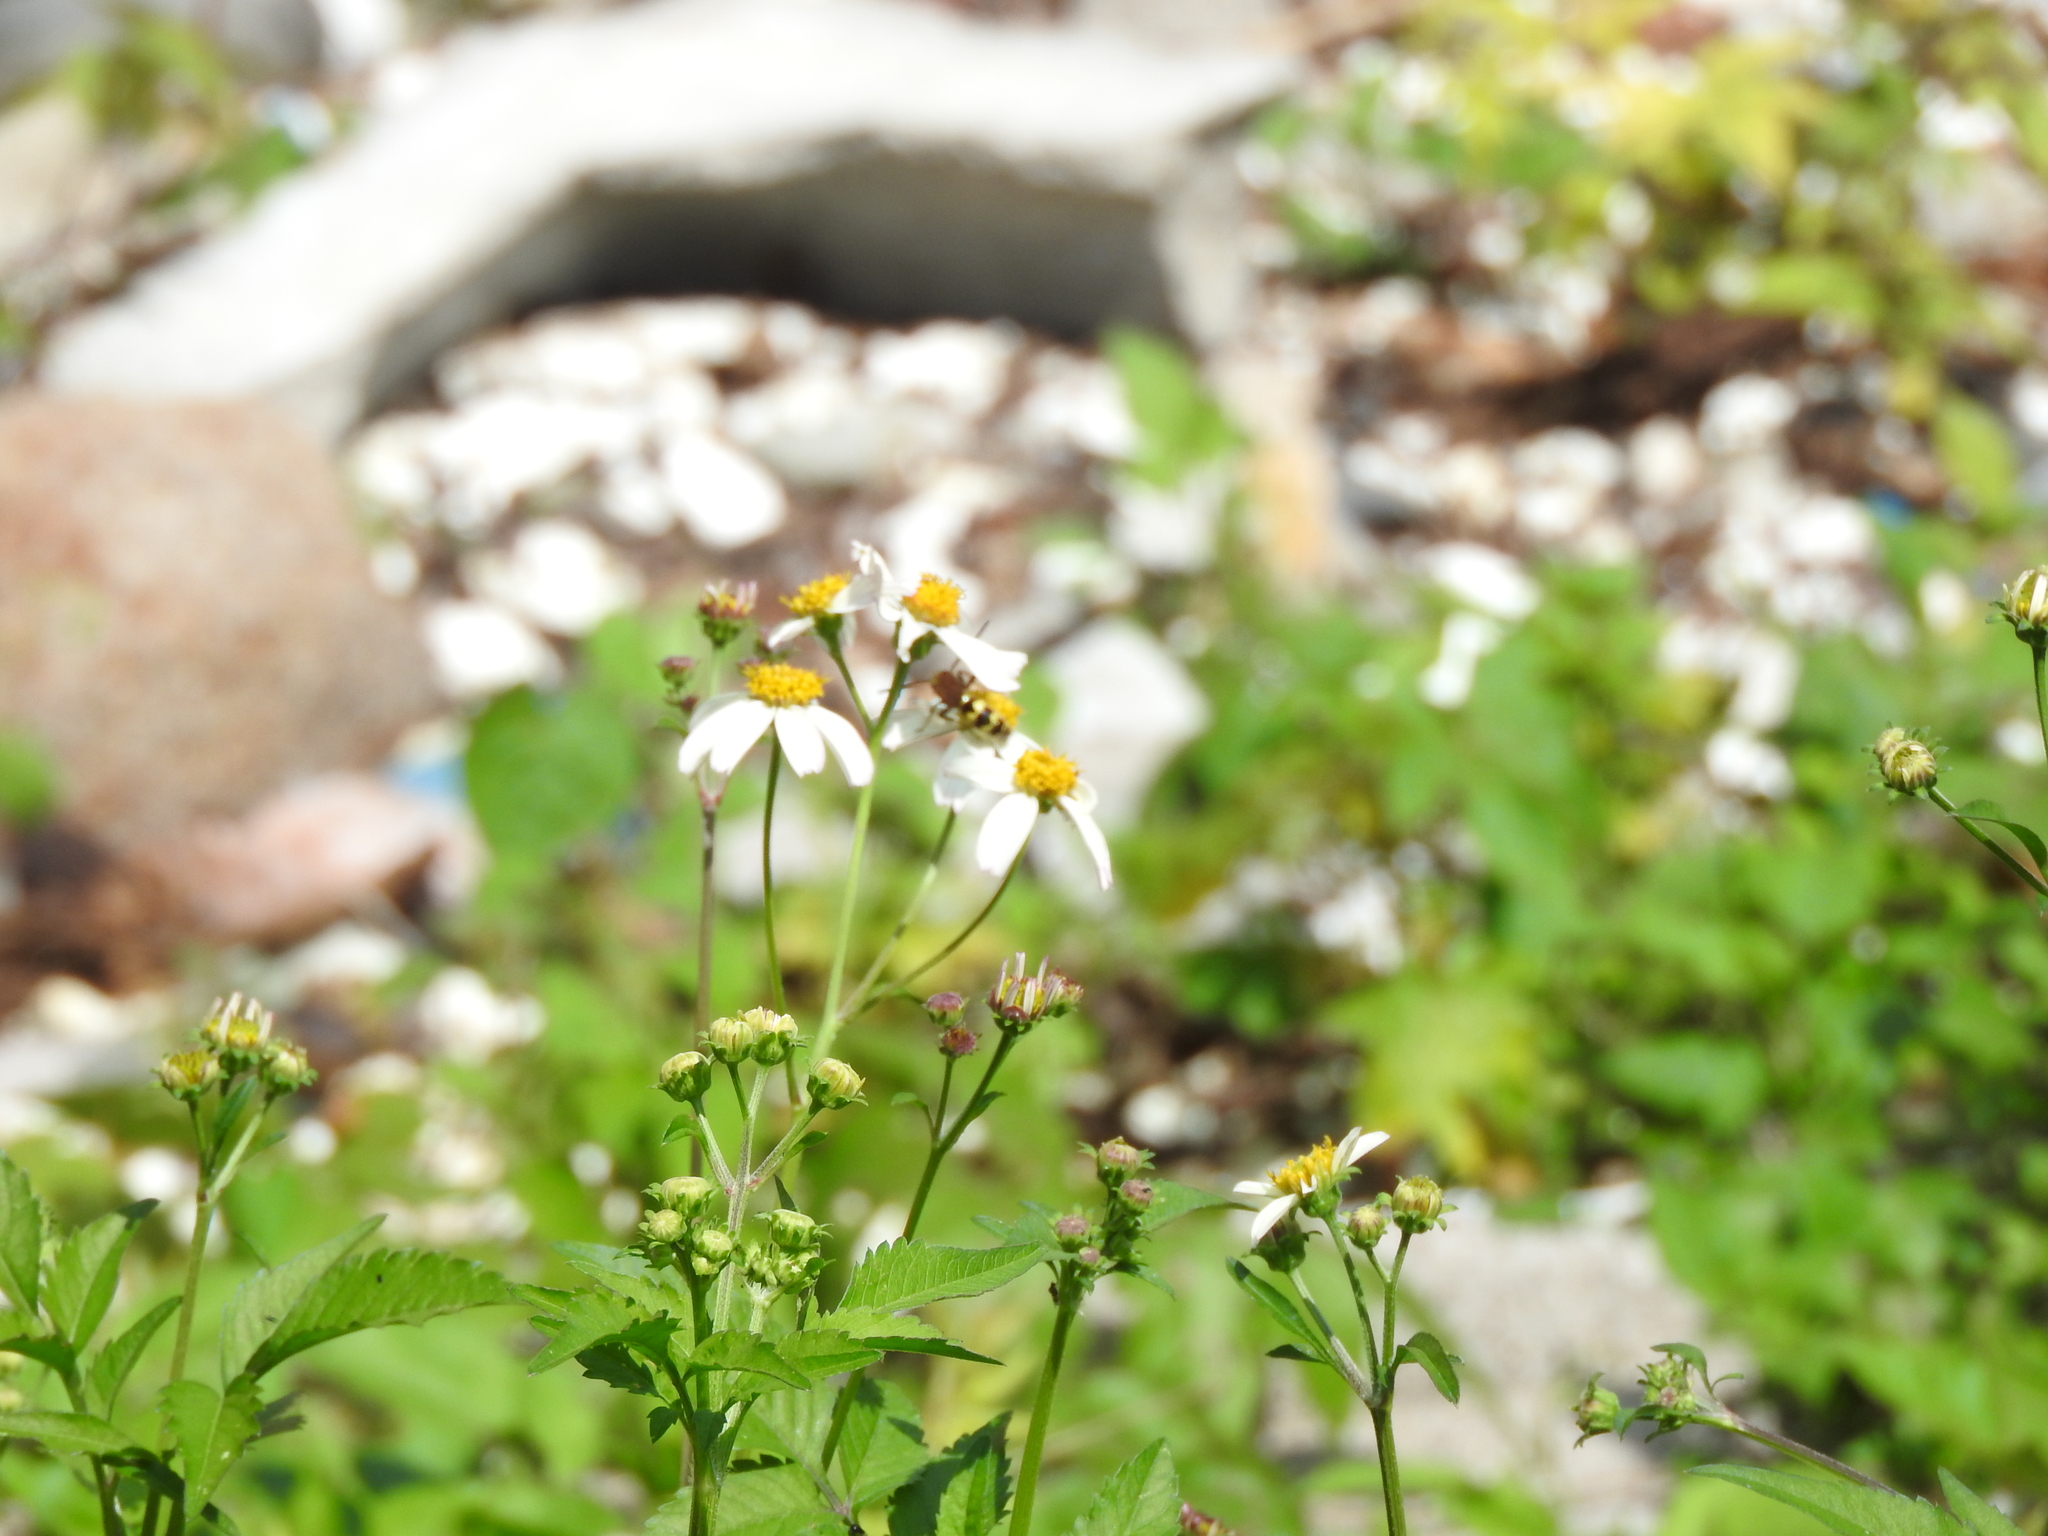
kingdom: Plantae
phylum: Tracheophyta
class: Magnoliopsida
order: Asterales
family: Asteraceae
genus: Bidens
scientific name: Bidens alba
